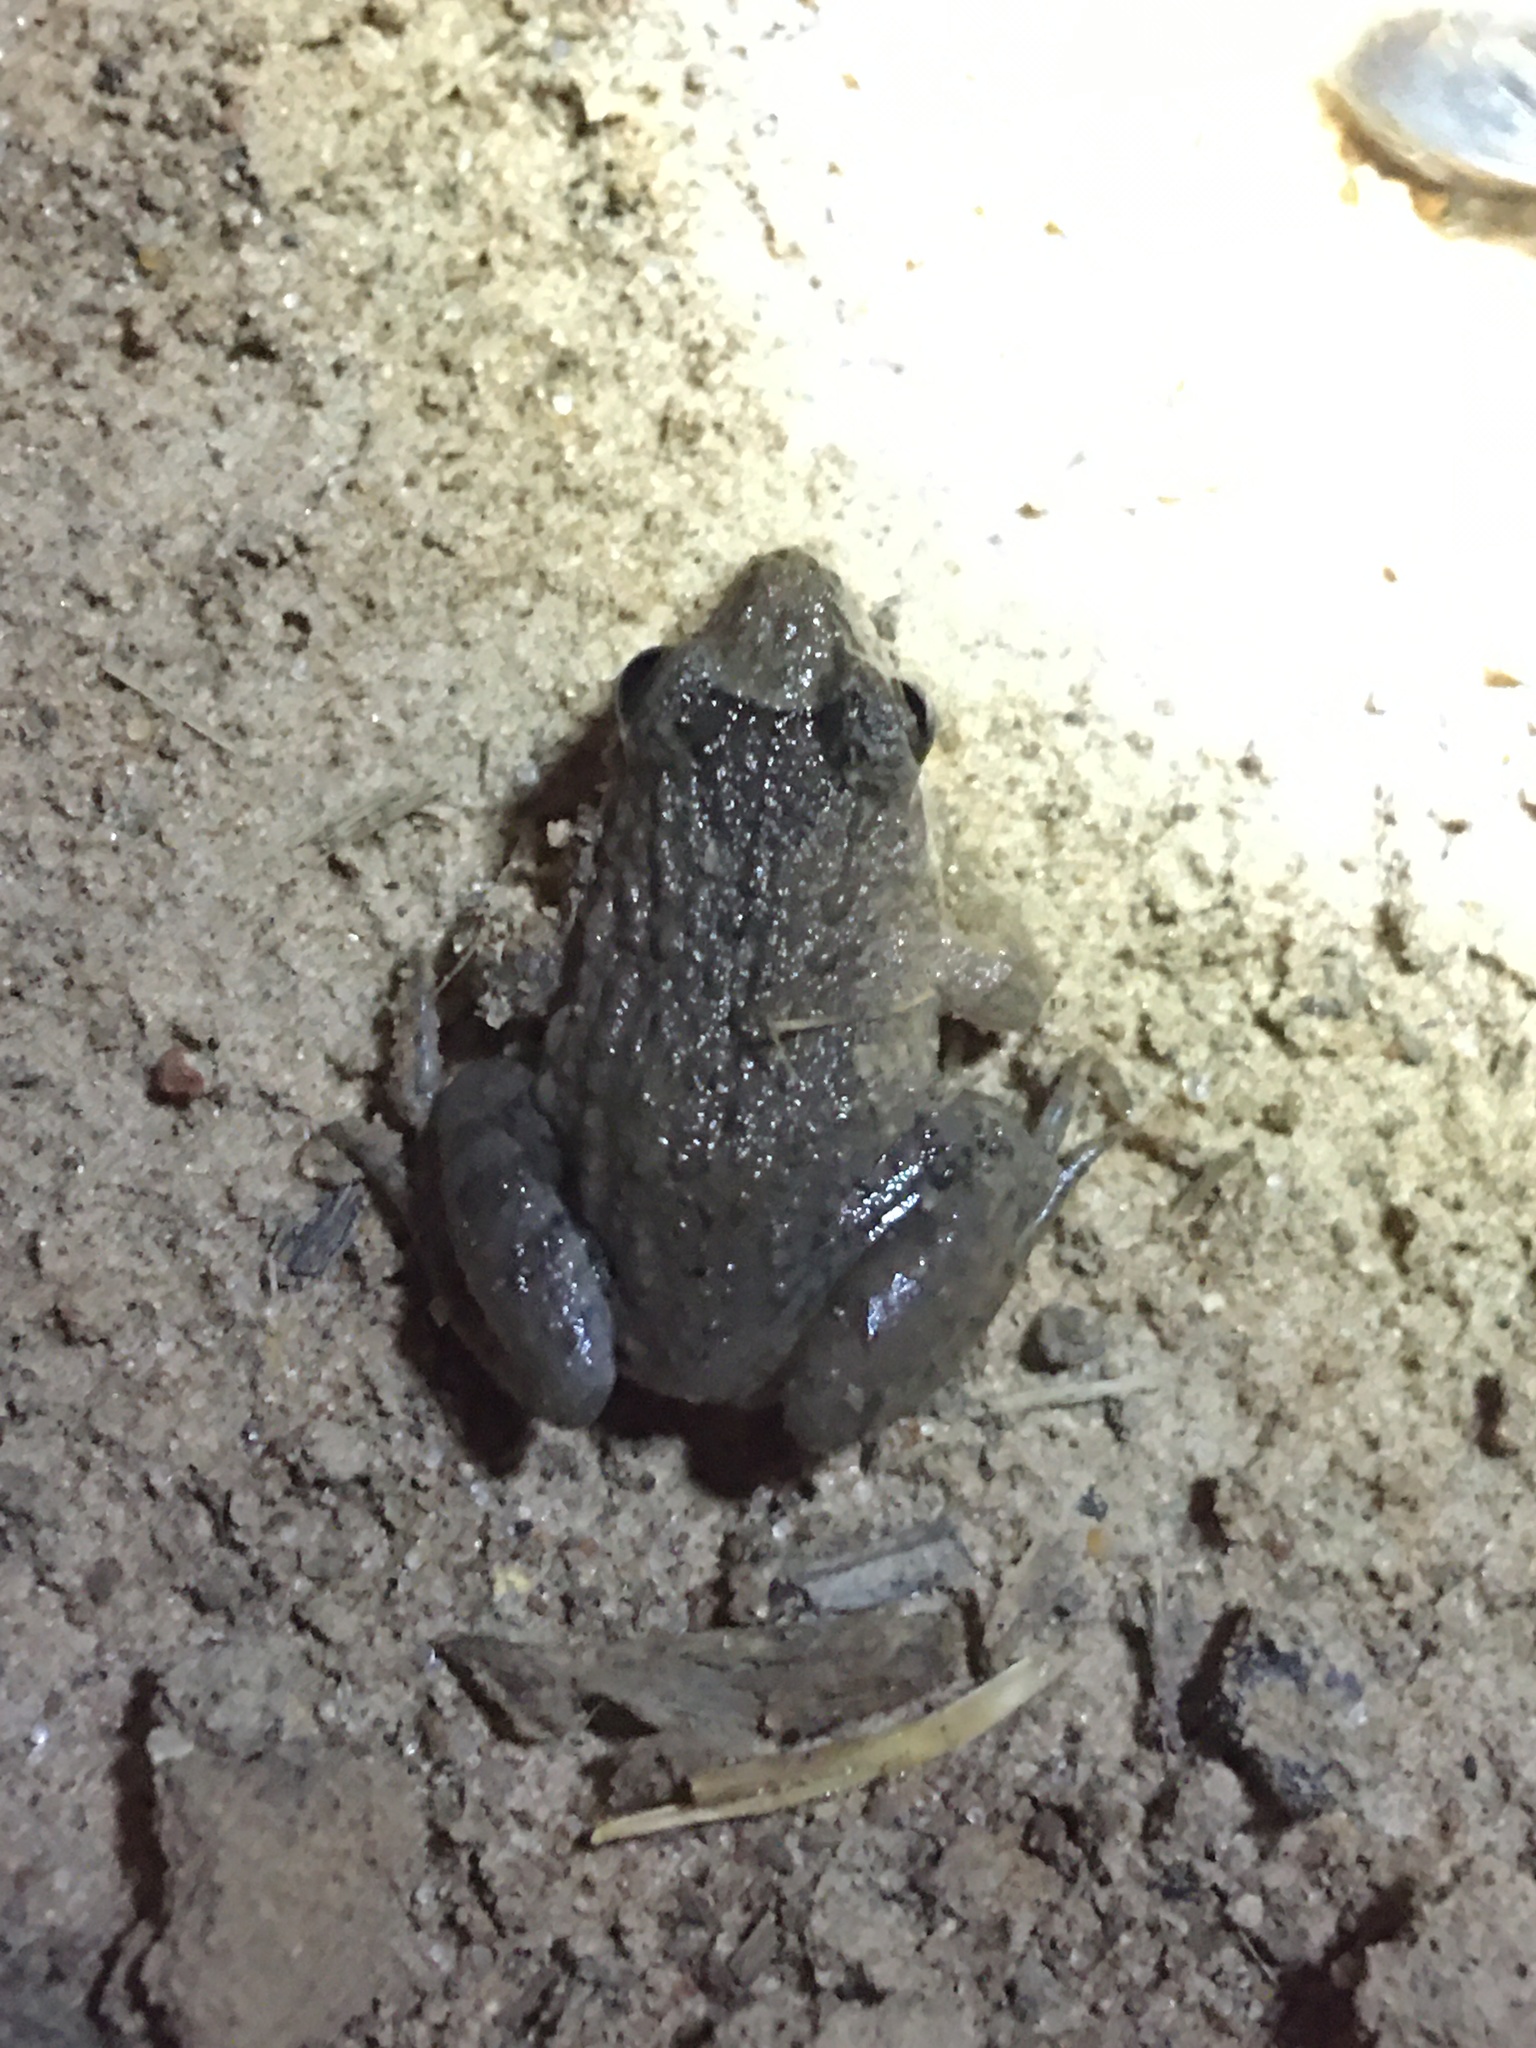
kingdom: Animalia
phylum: Chordata
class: Amphibia
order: Anura
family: Leptodactylidae
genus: Leptodactylus
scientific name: Leptodactylus podicipinus
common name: Pointedbelly frog
